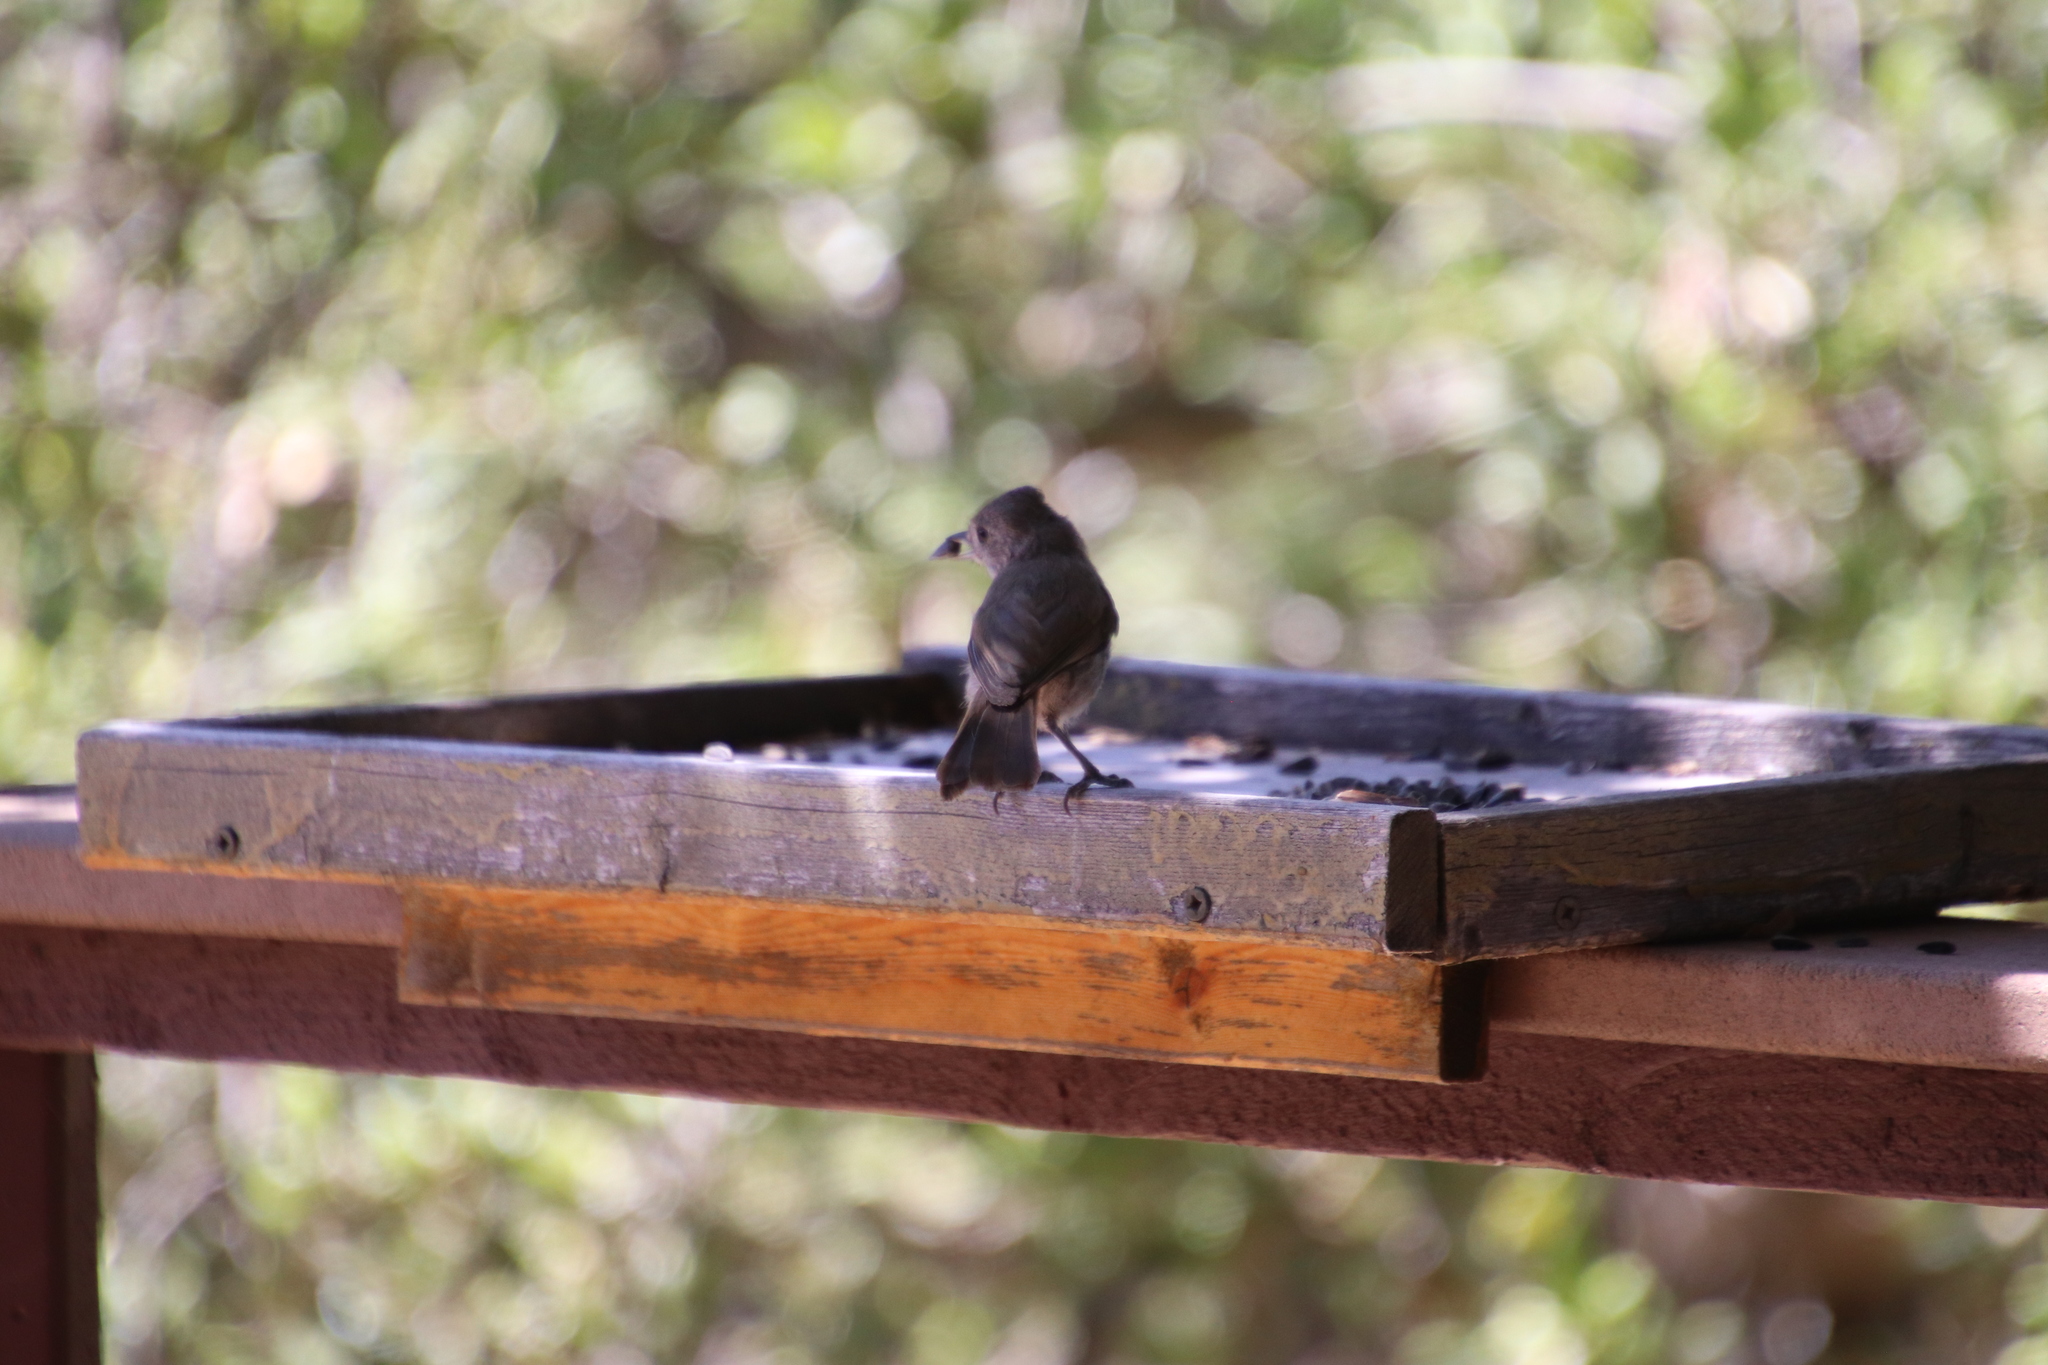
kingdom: Animalia
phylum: Chordata
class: Aves
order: Passeriformes
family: Paridae
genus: Baeolophus
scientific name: Baeolophus inornatus
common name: Oak titmouse
